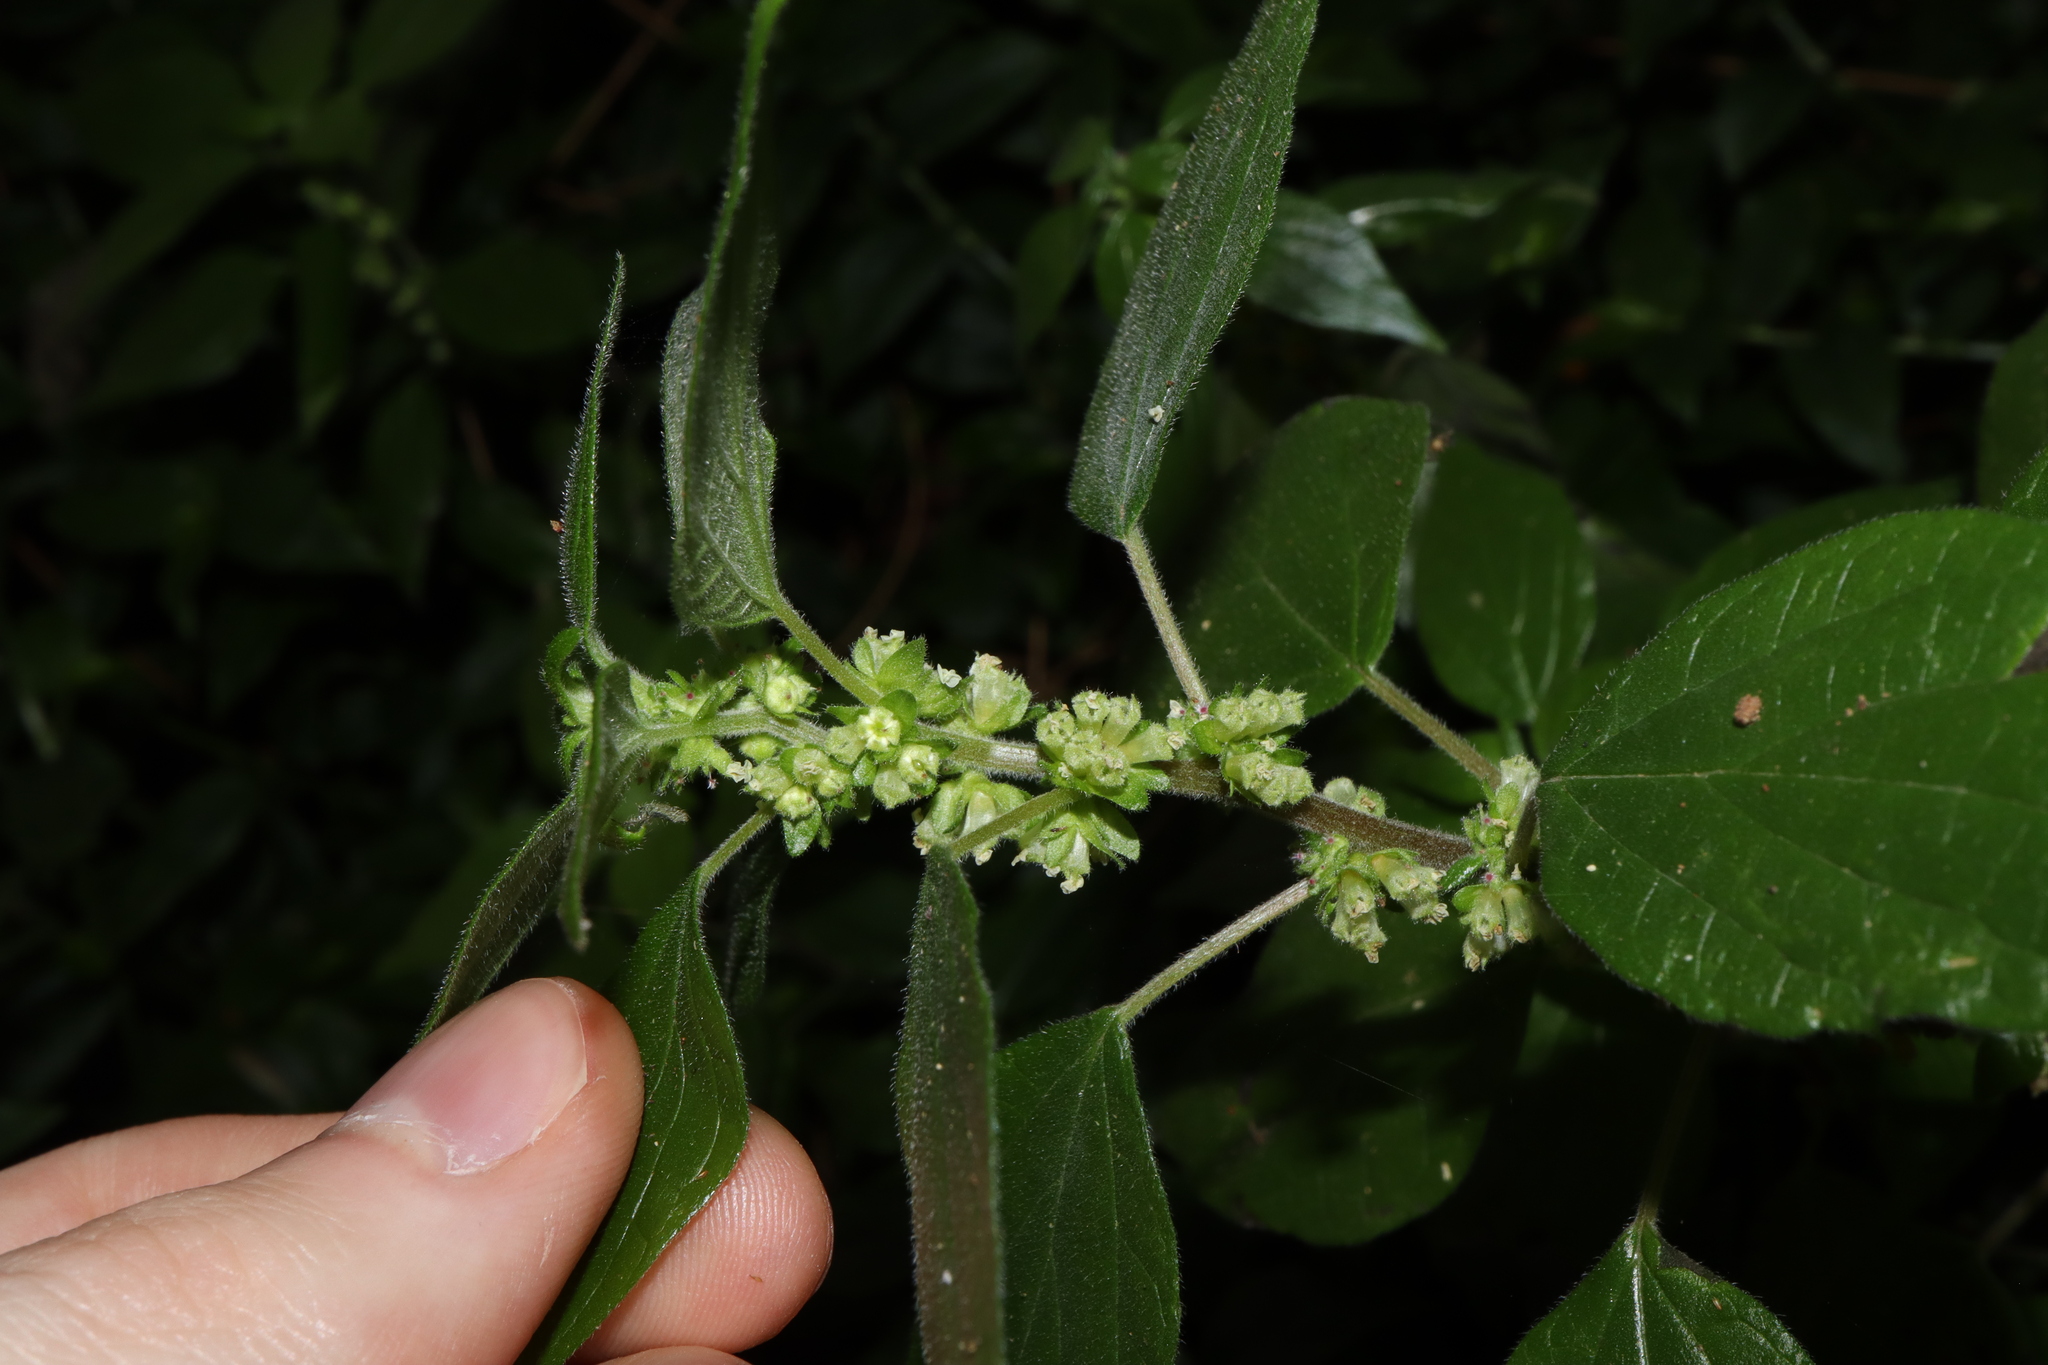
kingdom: Plantae
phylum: Tracheophyta
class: Magnoliopsida
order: Rosales
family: Urticaceae
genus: Parietaria
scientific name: Parietaria judaica
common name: Pellitory-of-the-wall
